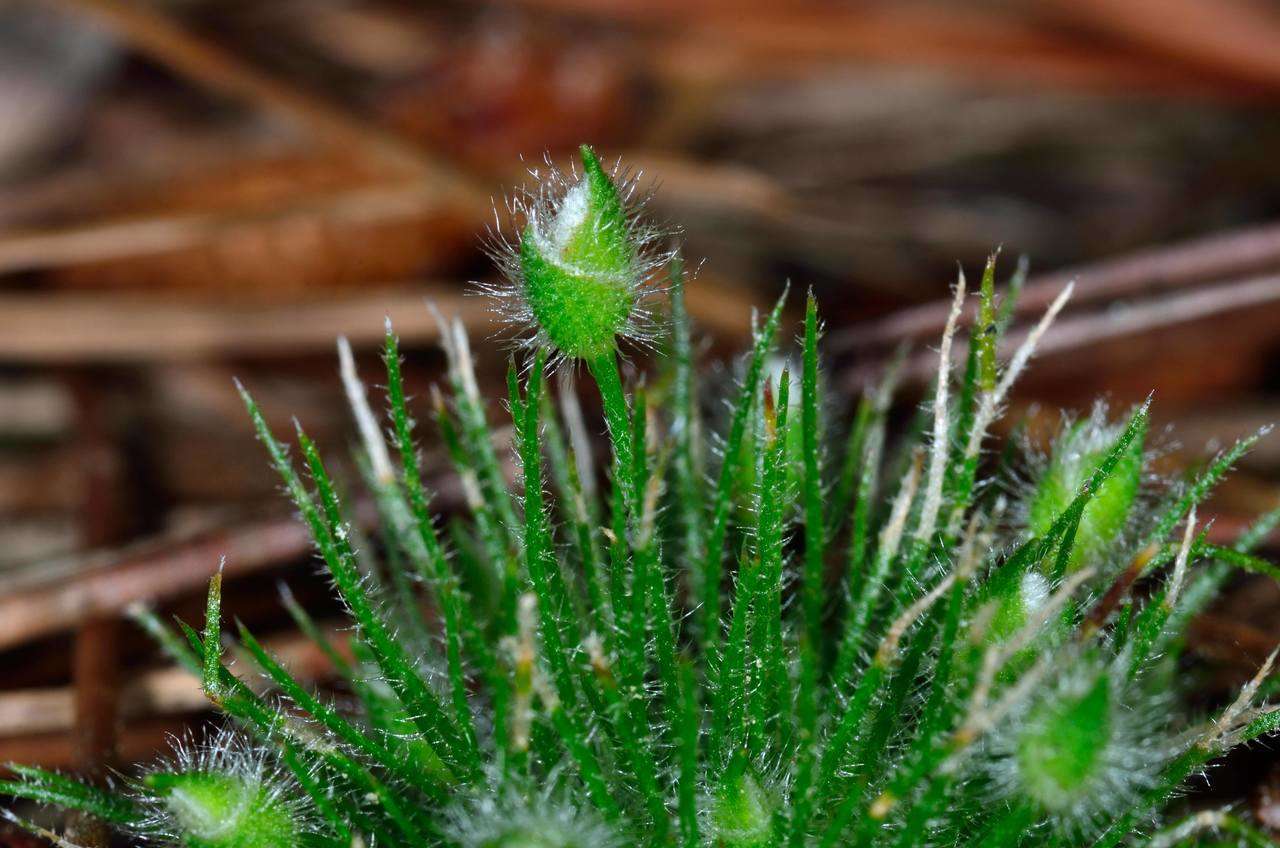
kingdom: Plantae
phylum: Tracheophyta
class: Liliopsida
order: Poales
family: Restionaceae
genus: Centrolepis
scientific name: Centrolepis strigosa
